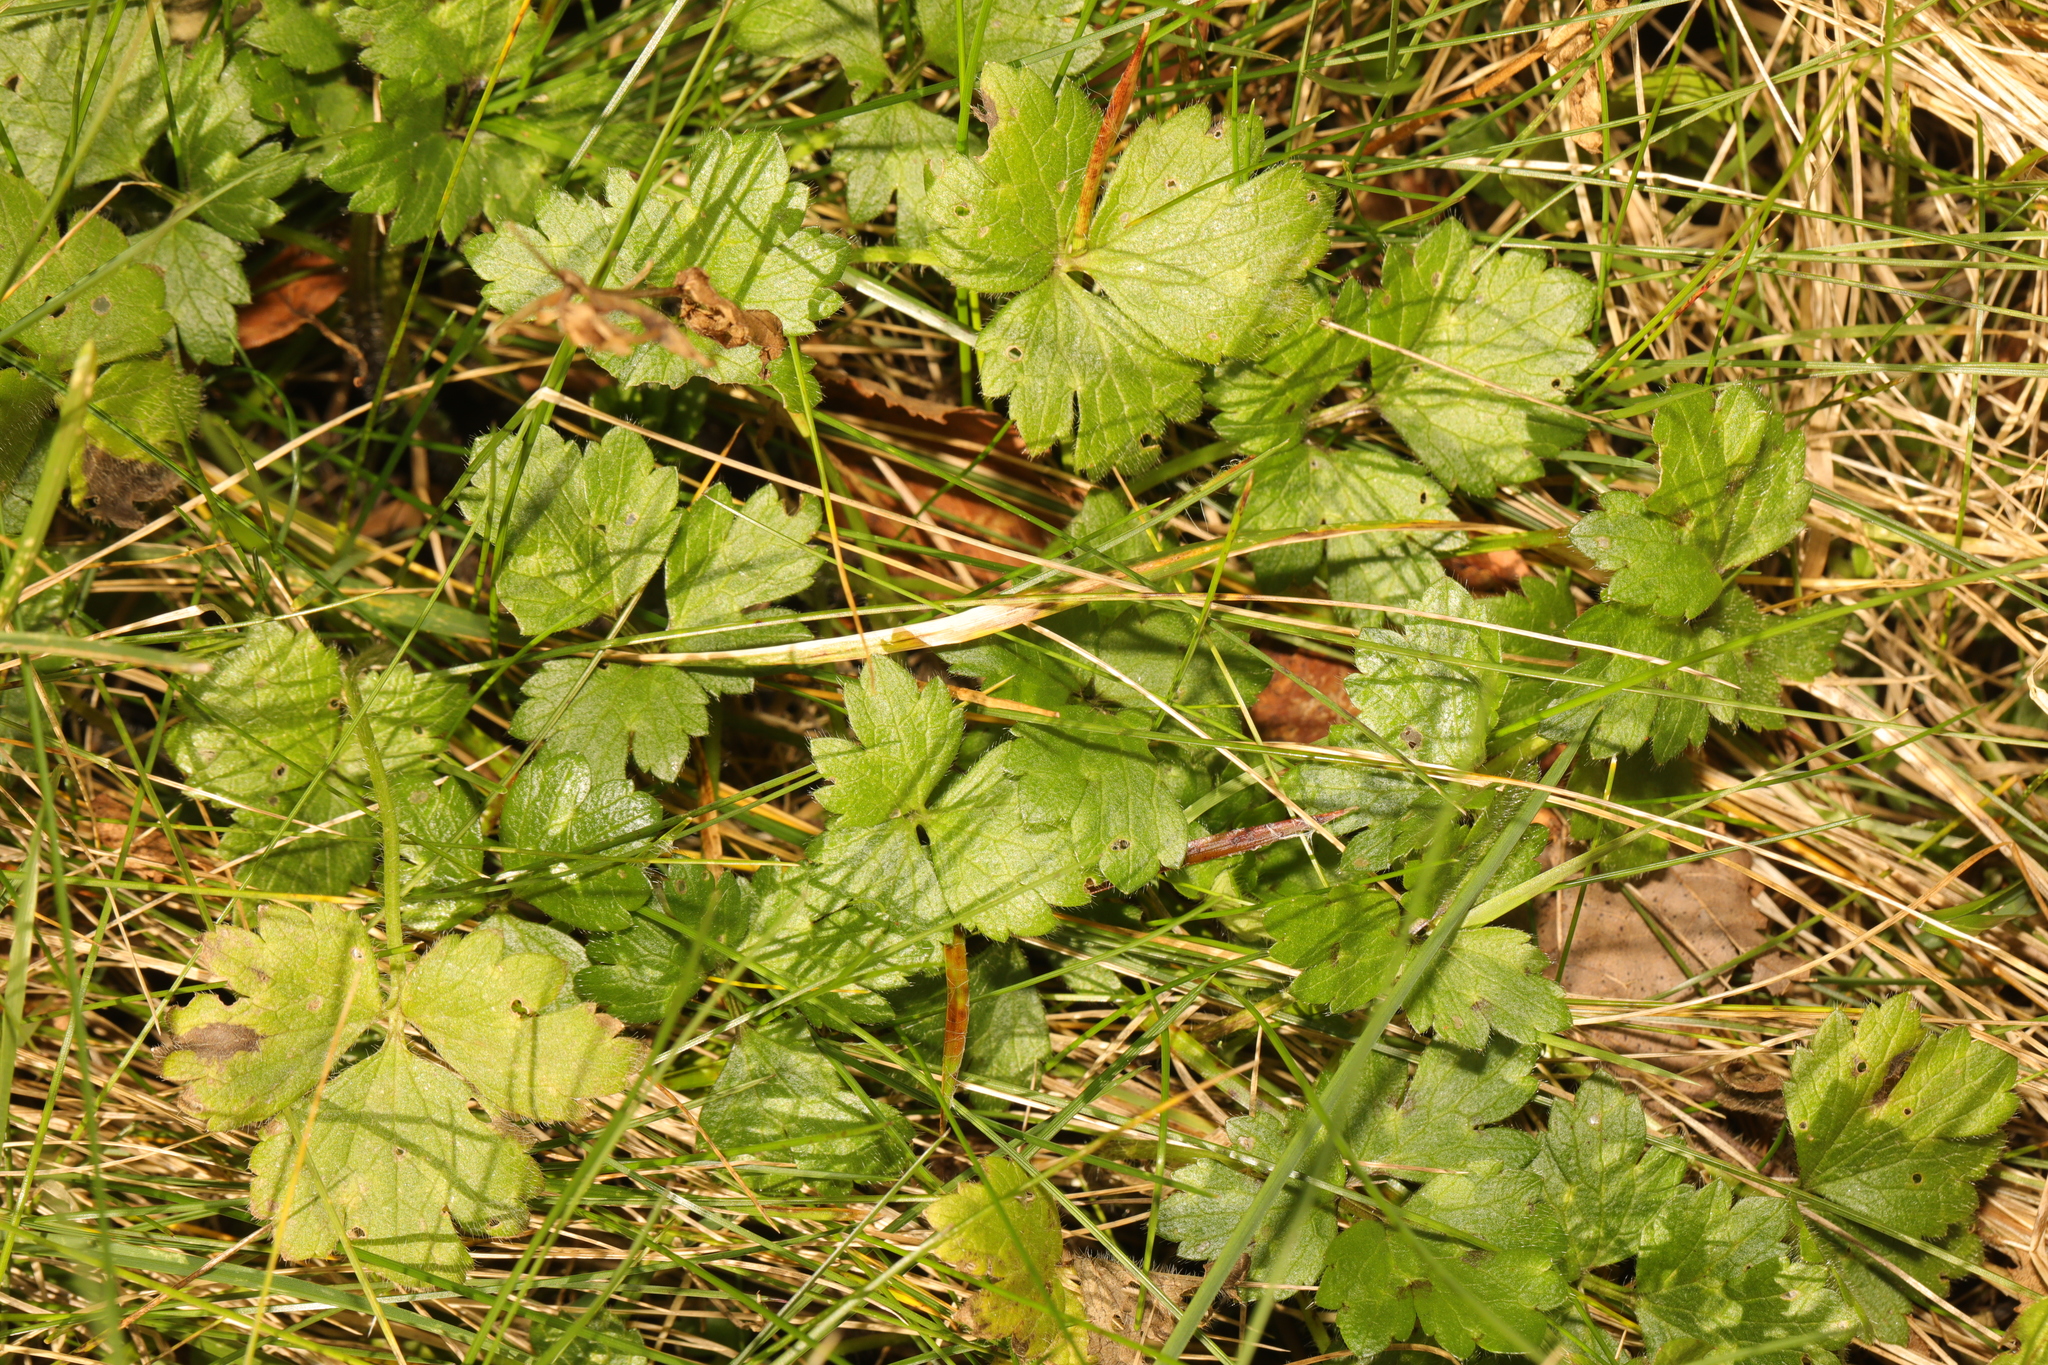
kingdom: Plantae
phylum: Tracheophyta
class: Magnoliopsida
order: Ranunculales
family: Ranunculaceae
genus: Ranunculus
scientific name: Ranunculus repens
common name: Creeping buttercup
